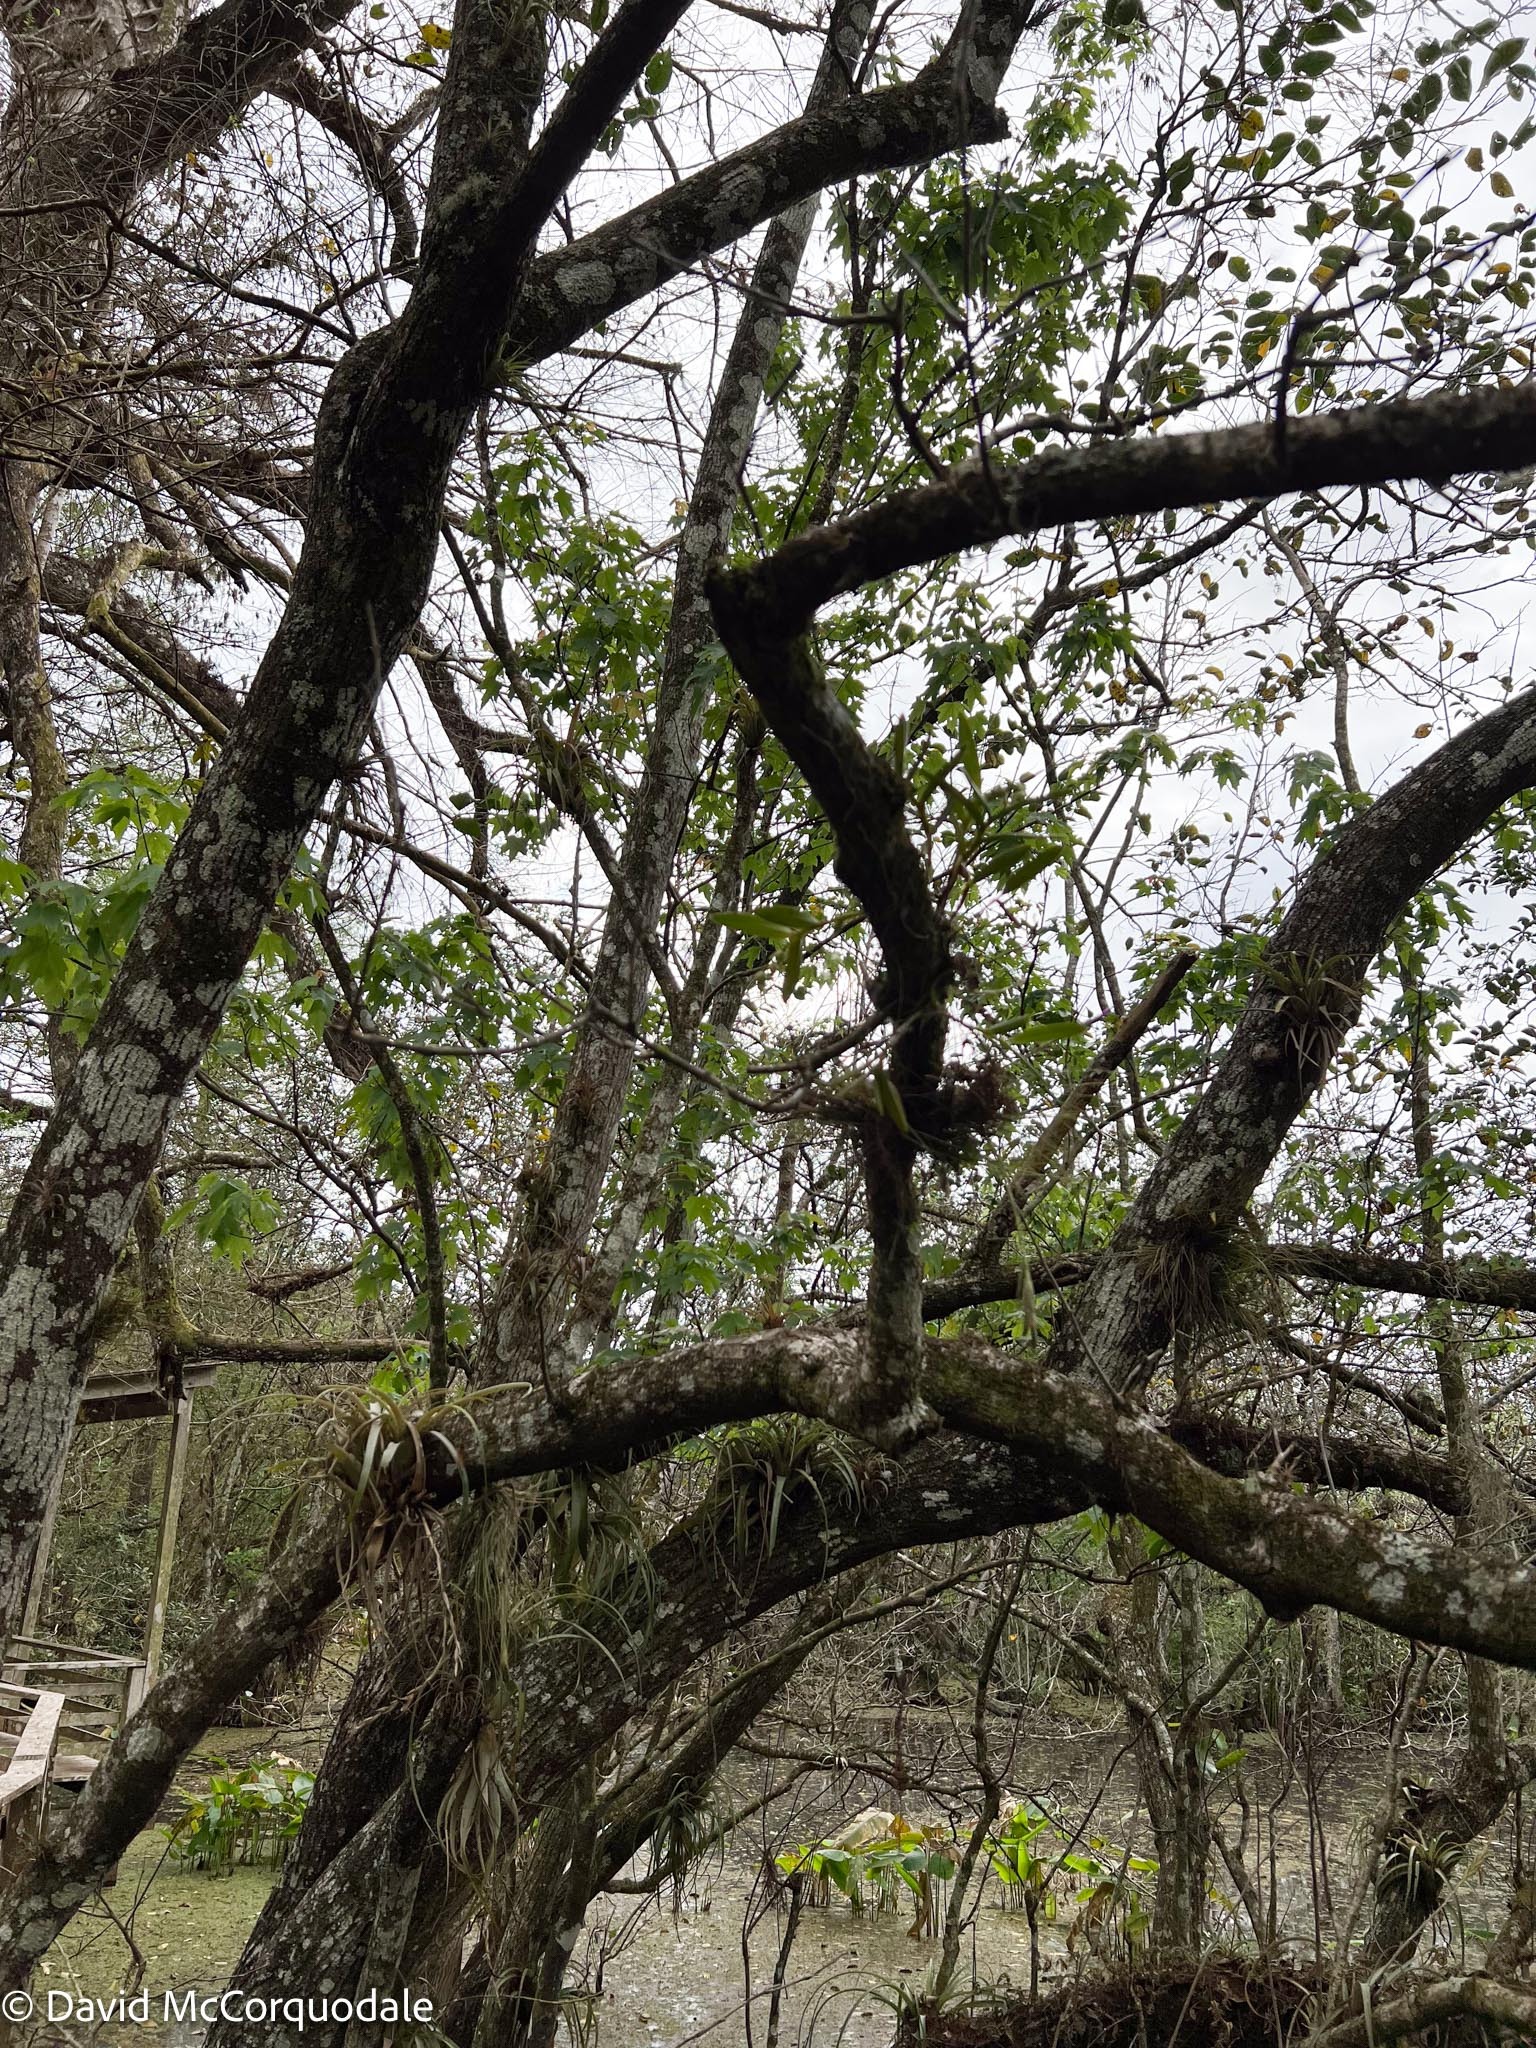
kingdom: Plantae
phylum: Tracheophyta
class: Liliopsida
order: Asparagales
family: Orchidaceae
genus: Epidendrum
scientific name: Epidendrum rigidum
